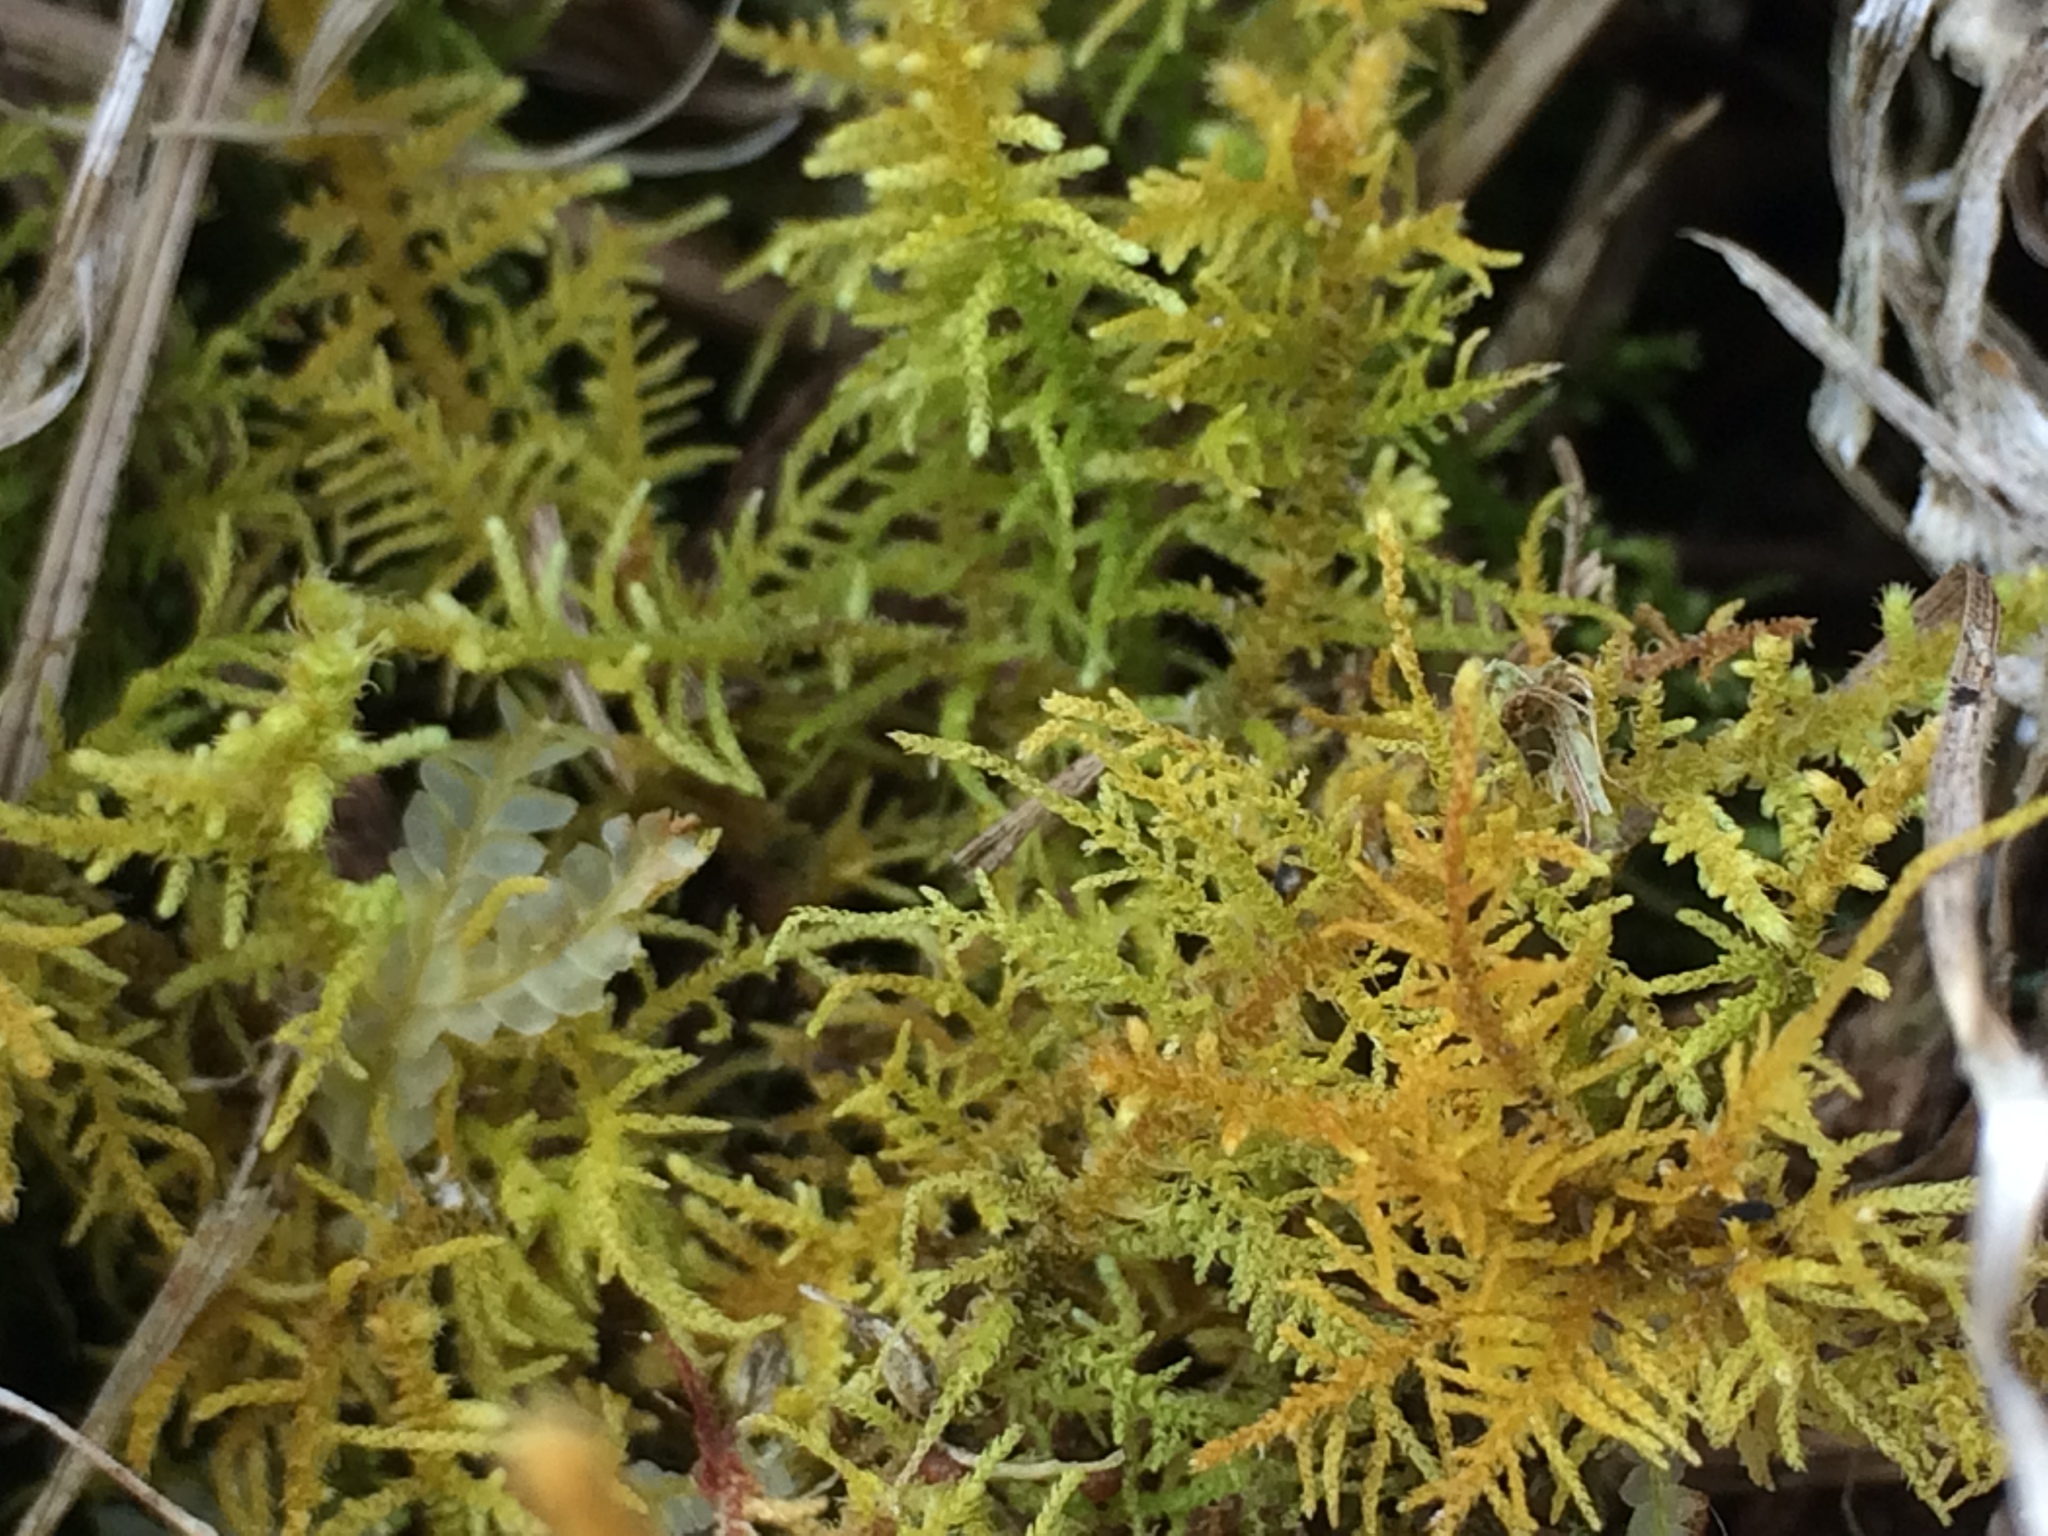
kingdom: Plantae
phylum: Bryophyta
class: Bryopsida
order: Hypnales
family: Thuidiaceae
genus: Thuidiopsis
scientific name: Thuidiopsis furfurosa
